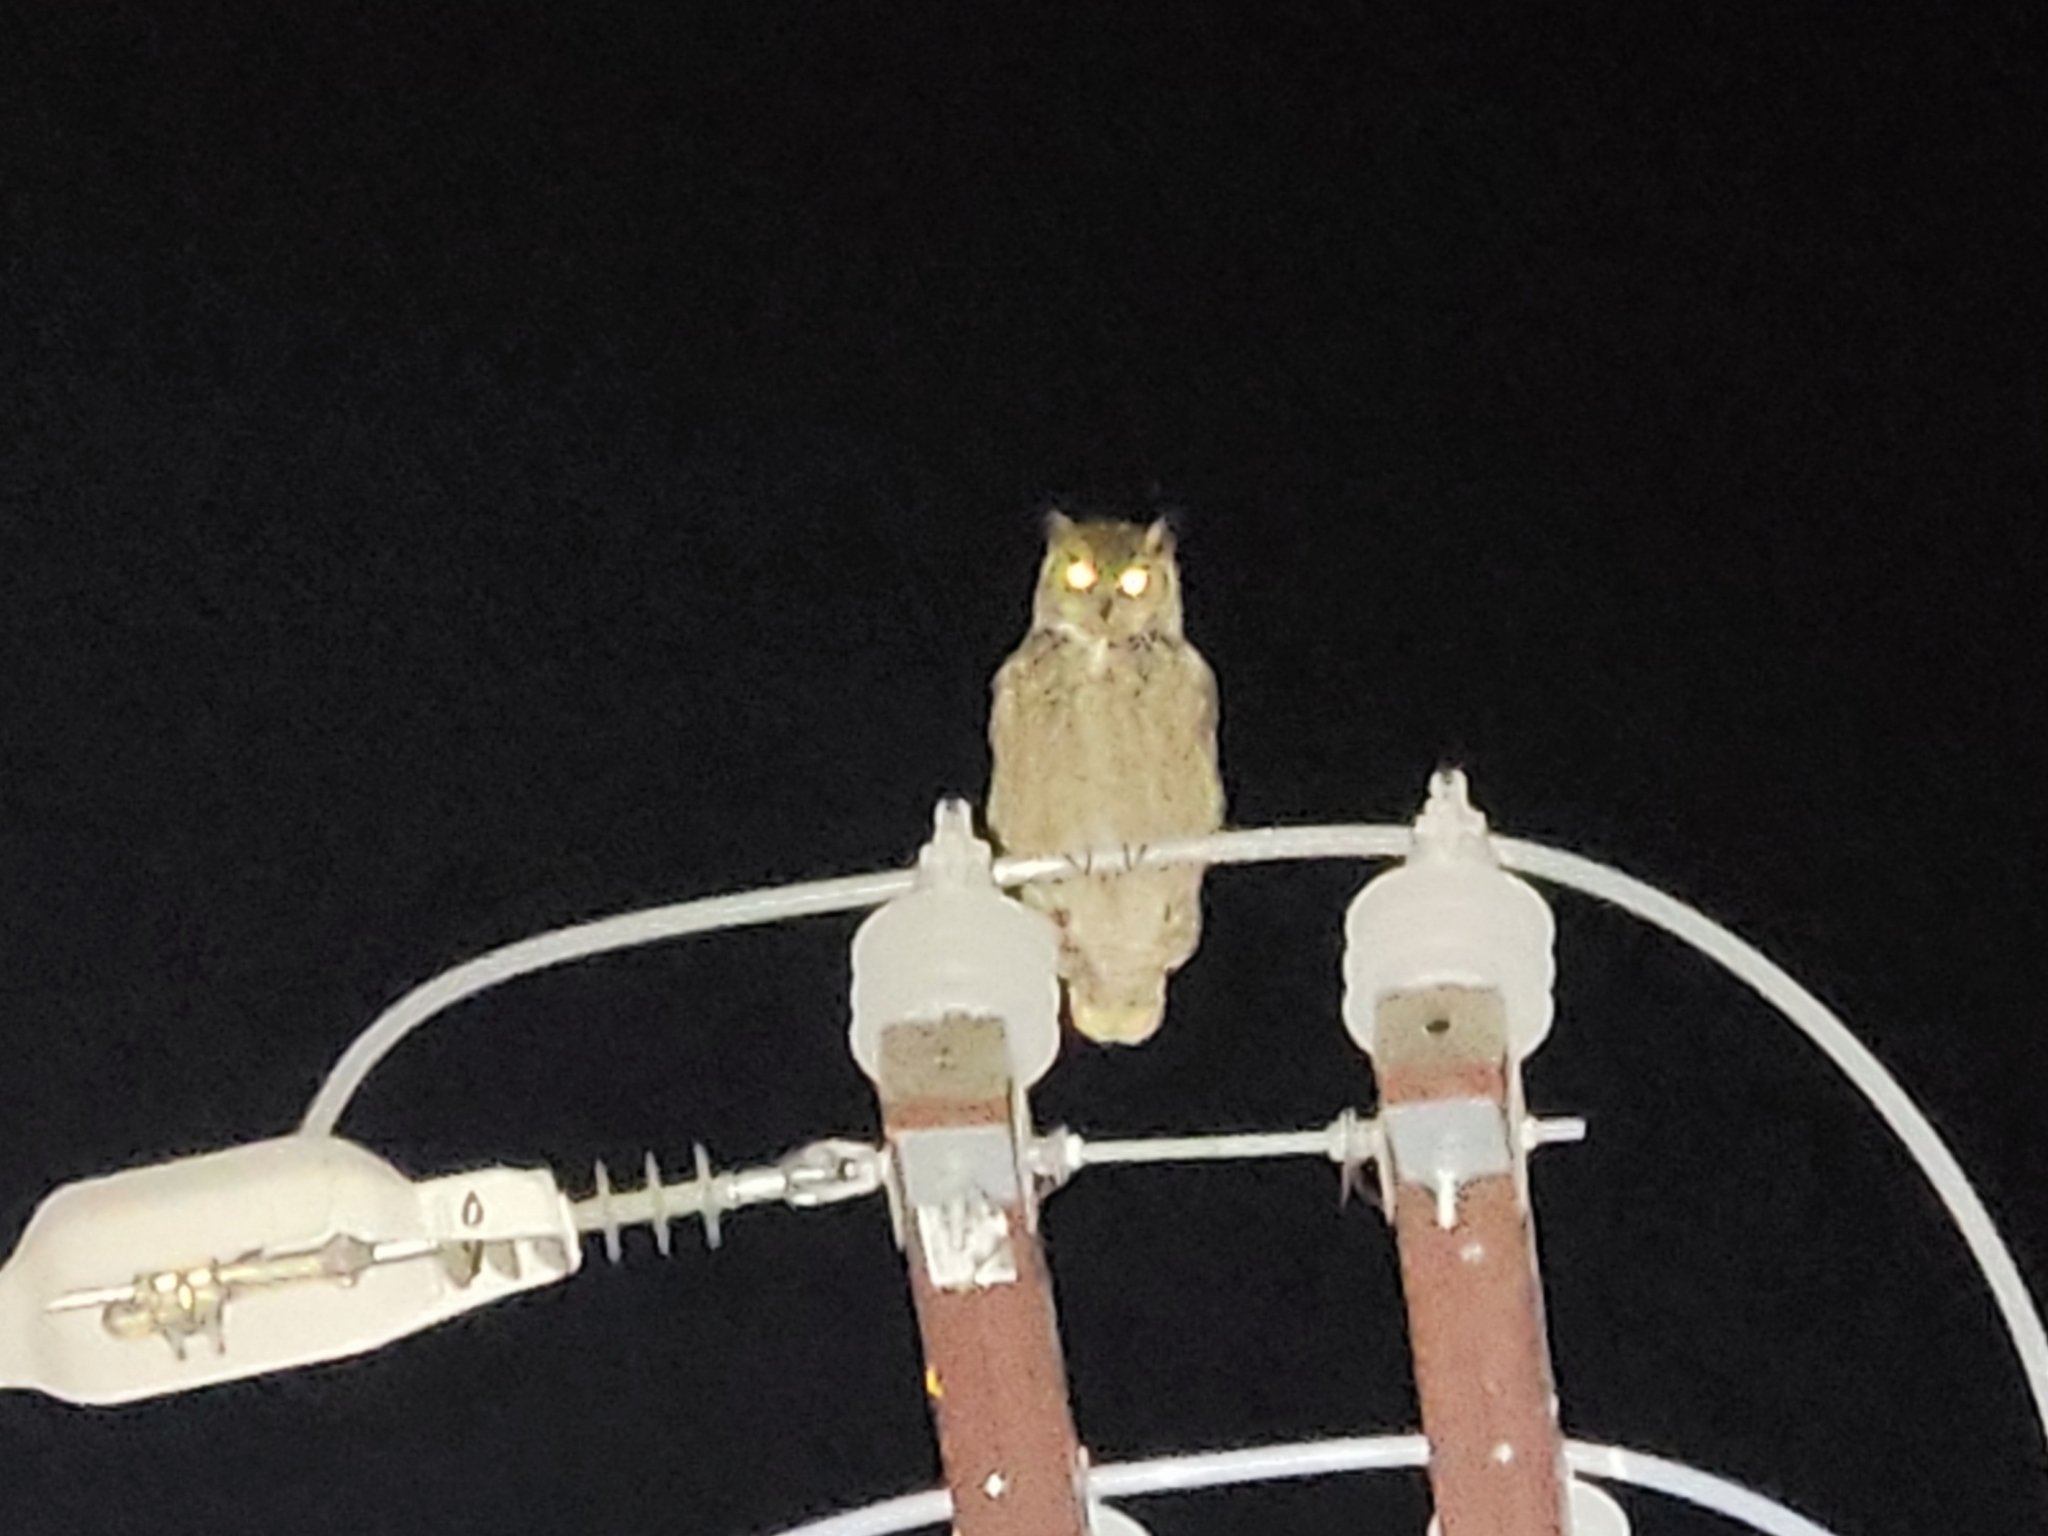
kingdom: Animalia
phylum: Chordata
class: Aves
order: Strigiformes
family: Strigidae
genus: Bubo
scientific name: Bubo virginianus
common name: Great horned owl
